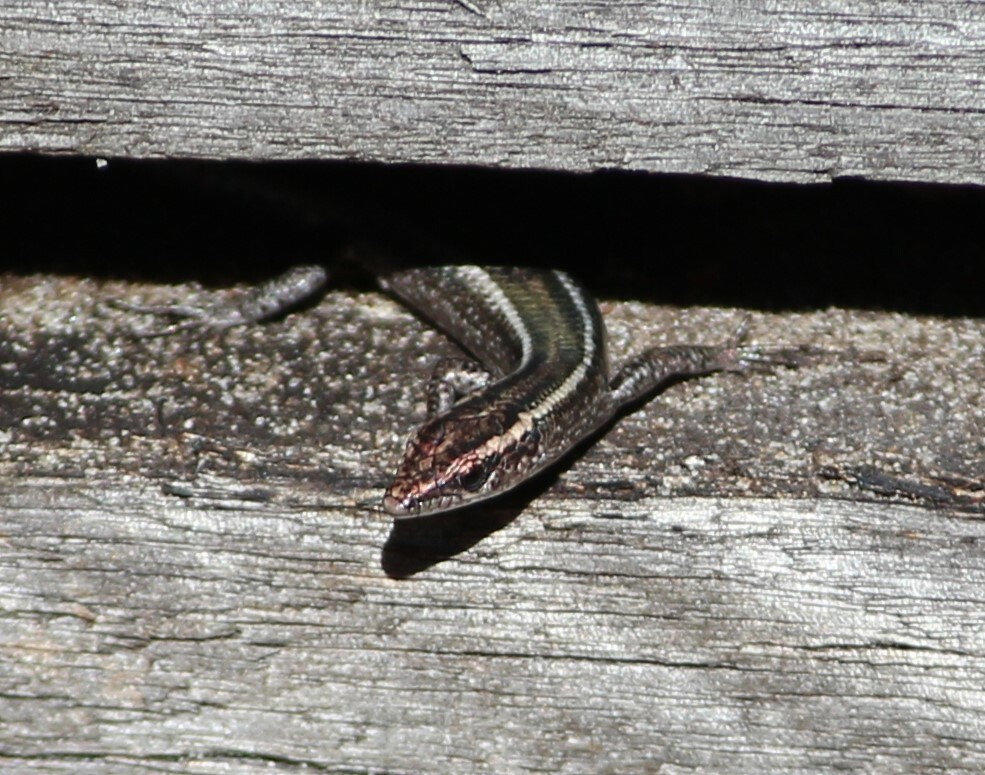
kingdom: Animalia
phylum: Chordata
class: Squamata
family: Scincidae
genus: Cryptoblepharus
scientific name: Cryptoblepharus pulcher
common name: Elegant snake-eyed skink
